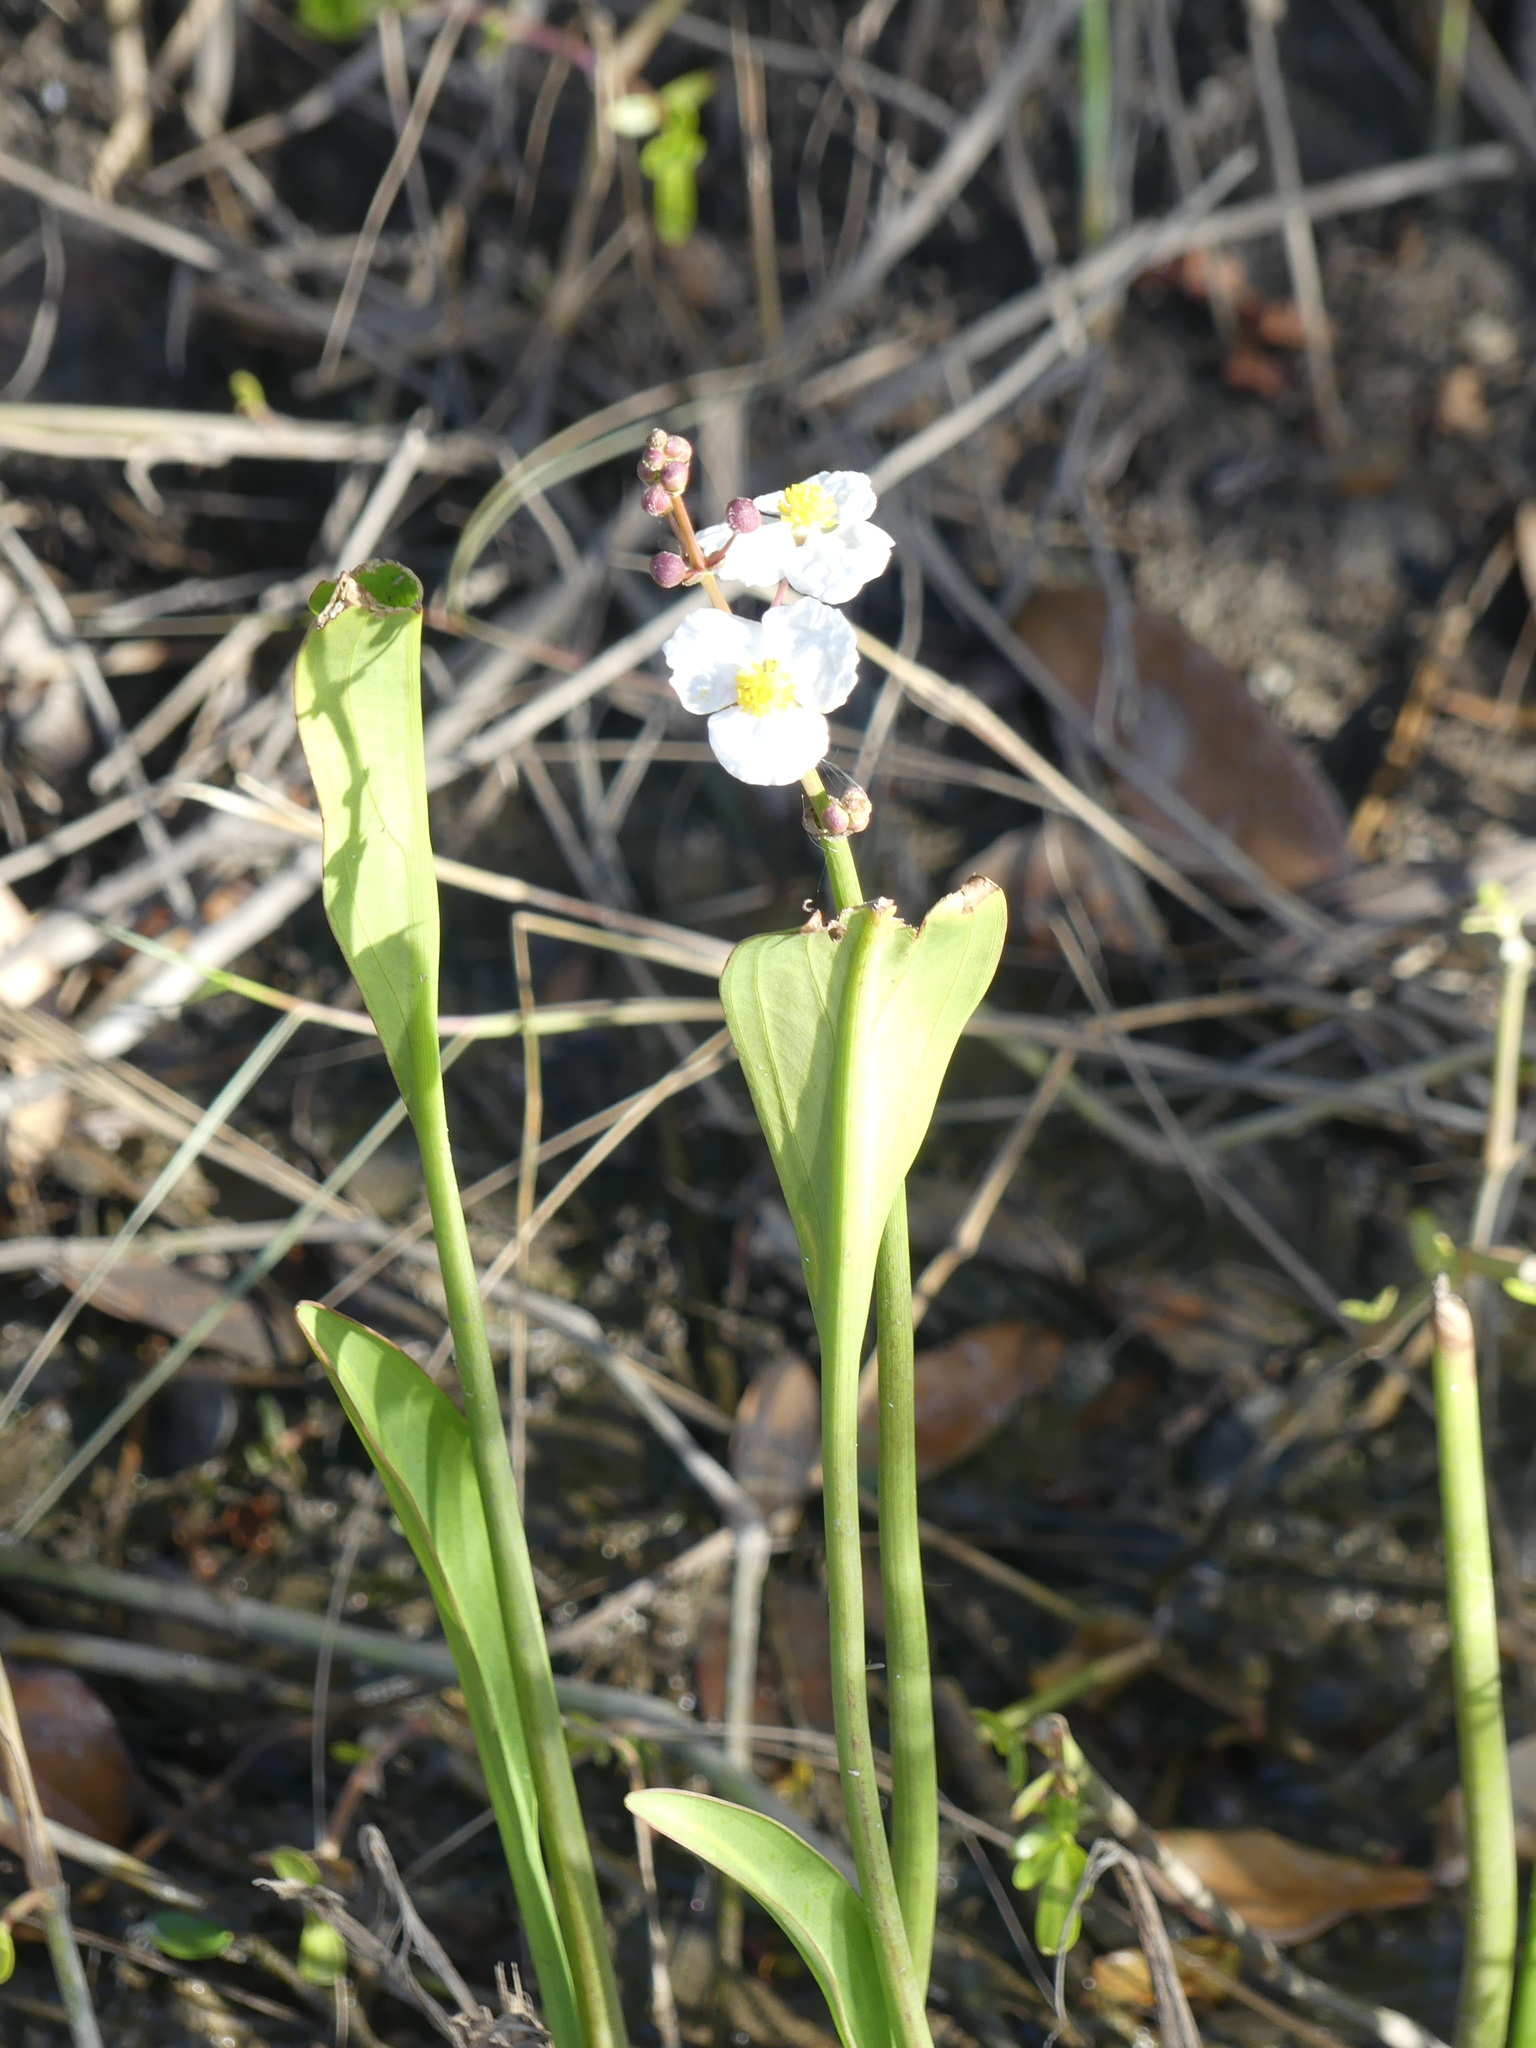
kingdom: Plantae
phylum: Tracheophyta
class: Liliopsida
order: Alismatales
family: Alismataceae
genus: Sagittaria
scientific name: Sagittaria lancifolia
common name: Lance-leaf arrowhead
